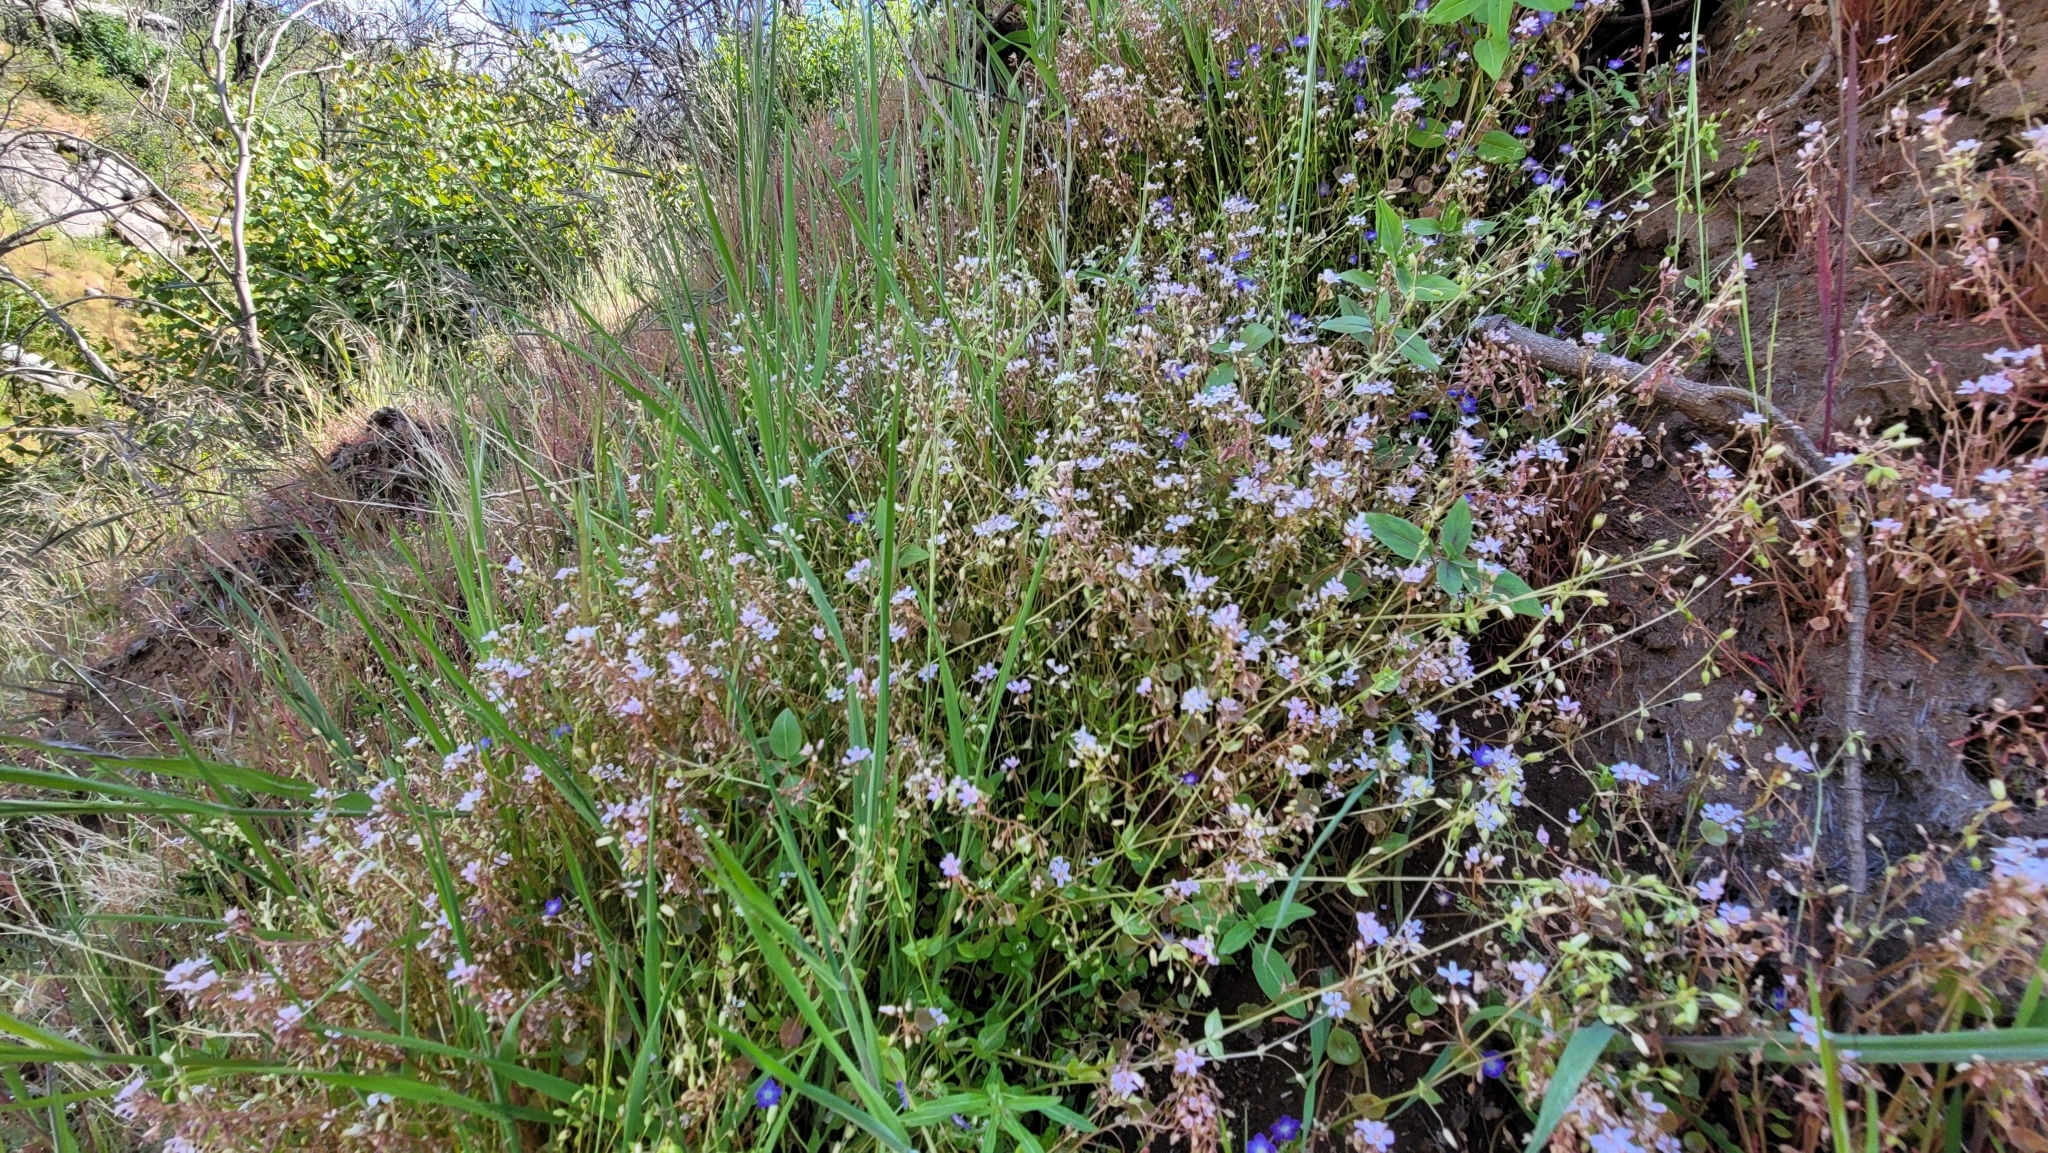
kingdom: Plantae
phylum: Tracheophyta
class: Magnoliopsida
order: Caryophyllales
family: Montiaceae
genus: Claytonia
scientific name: Claytonia parviflora
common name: Indian-lettuce
